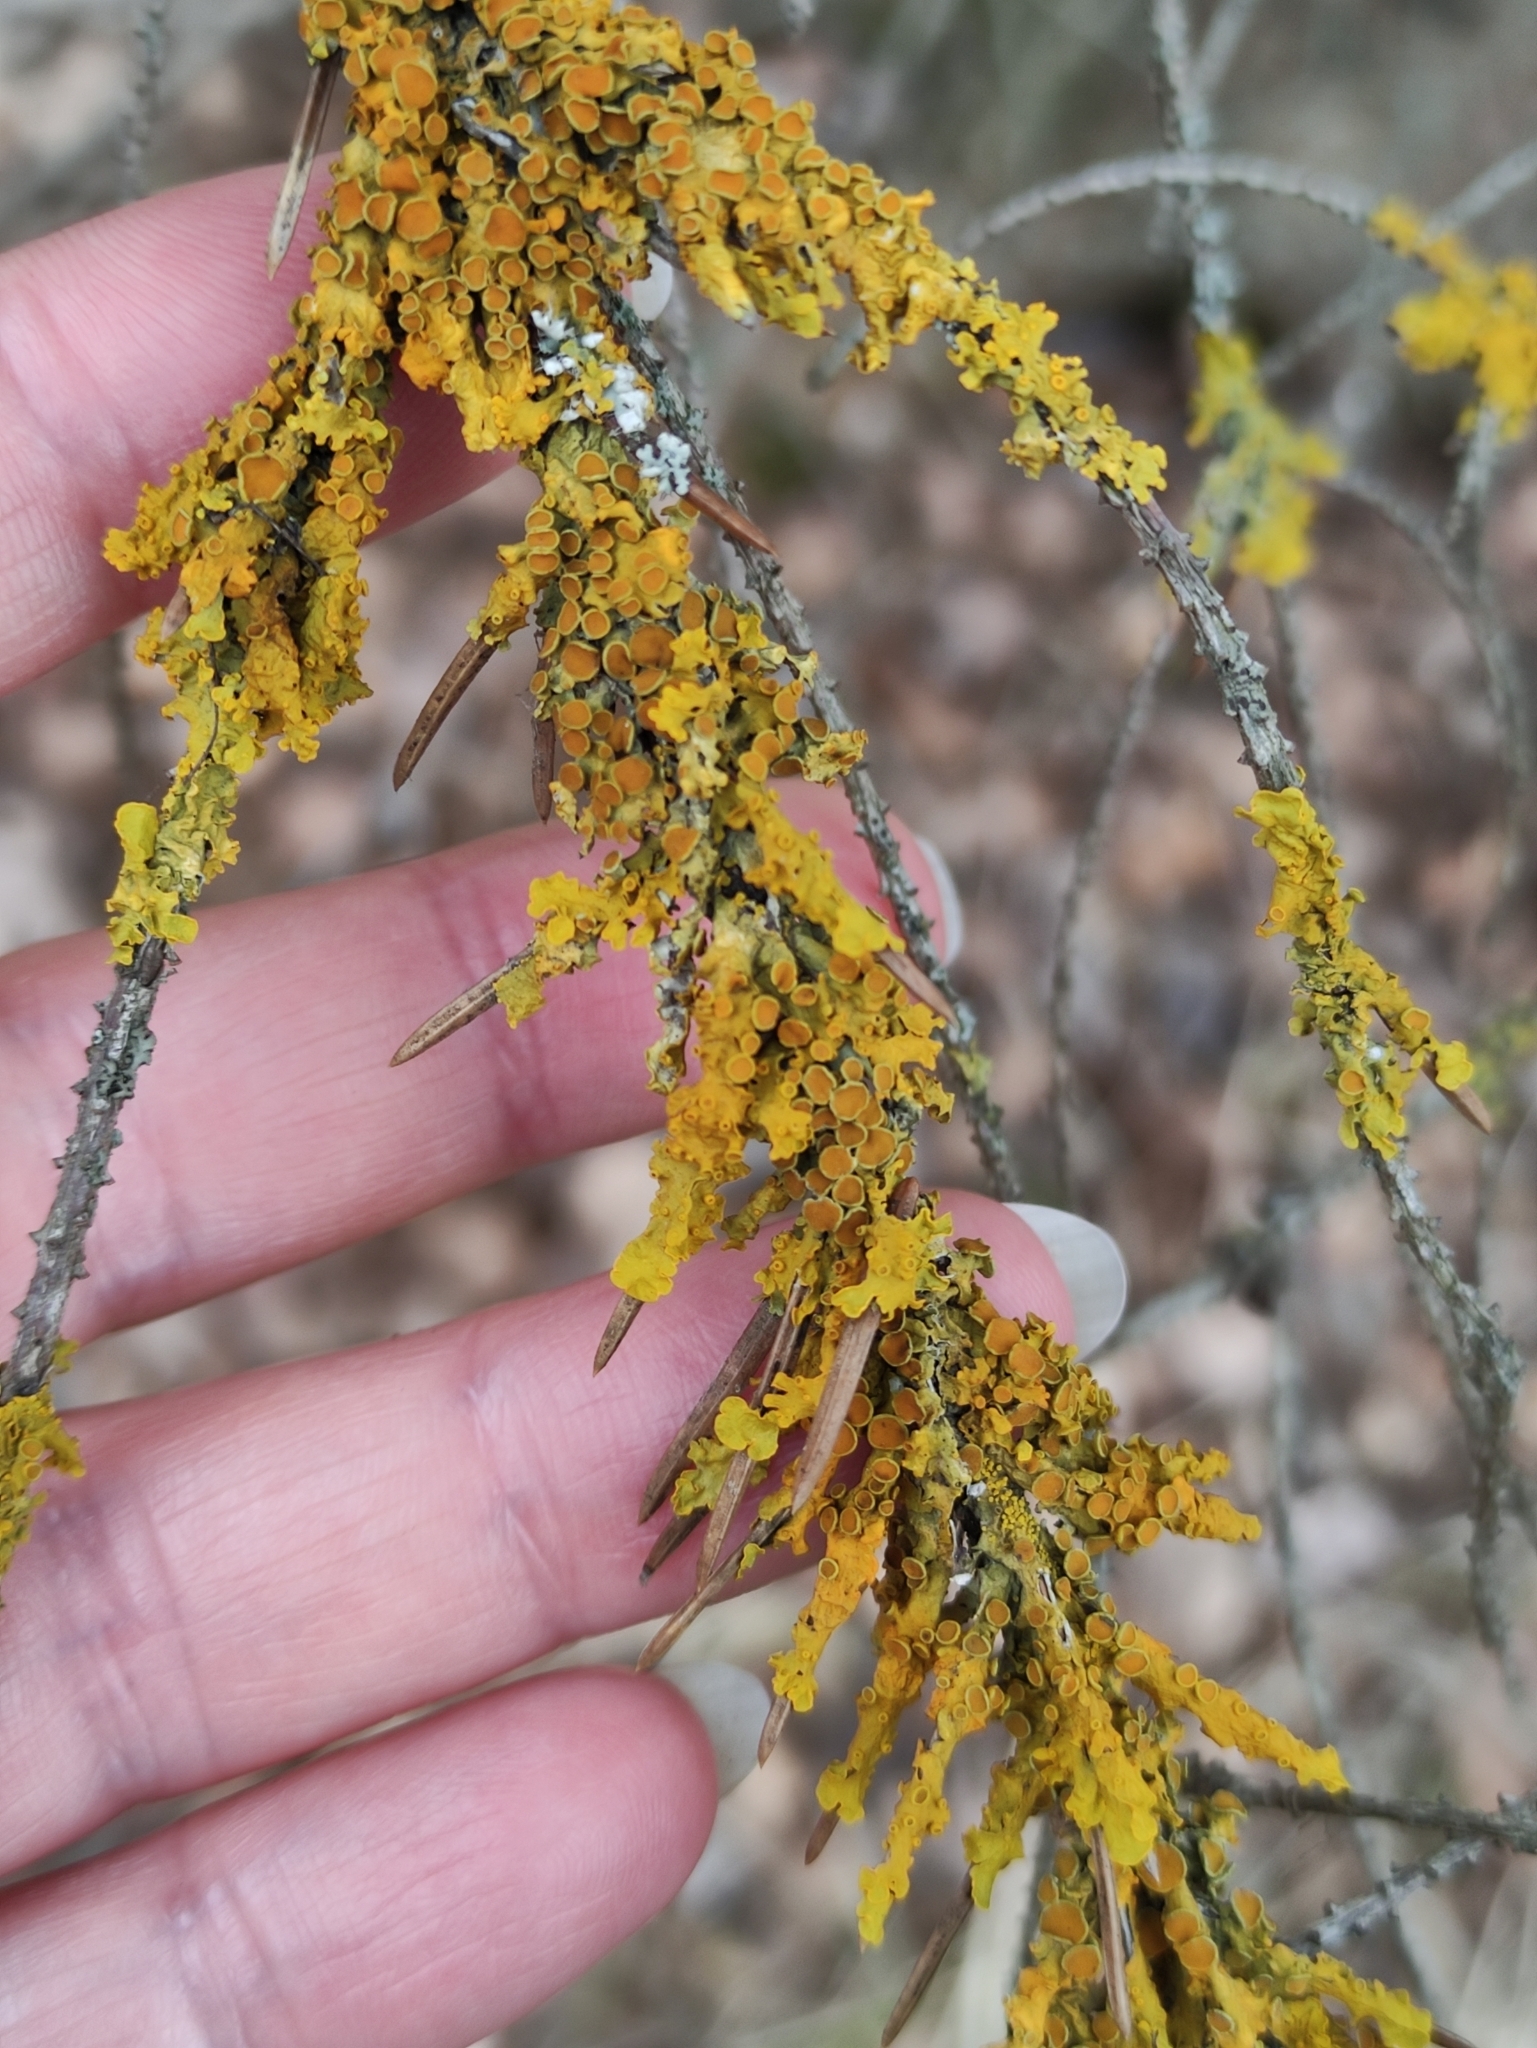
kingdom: Fungi
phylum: Ascomycota
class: Lecanoromycetes
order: Teloschistales
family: Teloschistaceae
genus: Xanthoria
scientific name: Xanthoria parietina
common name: Common orange lichen
